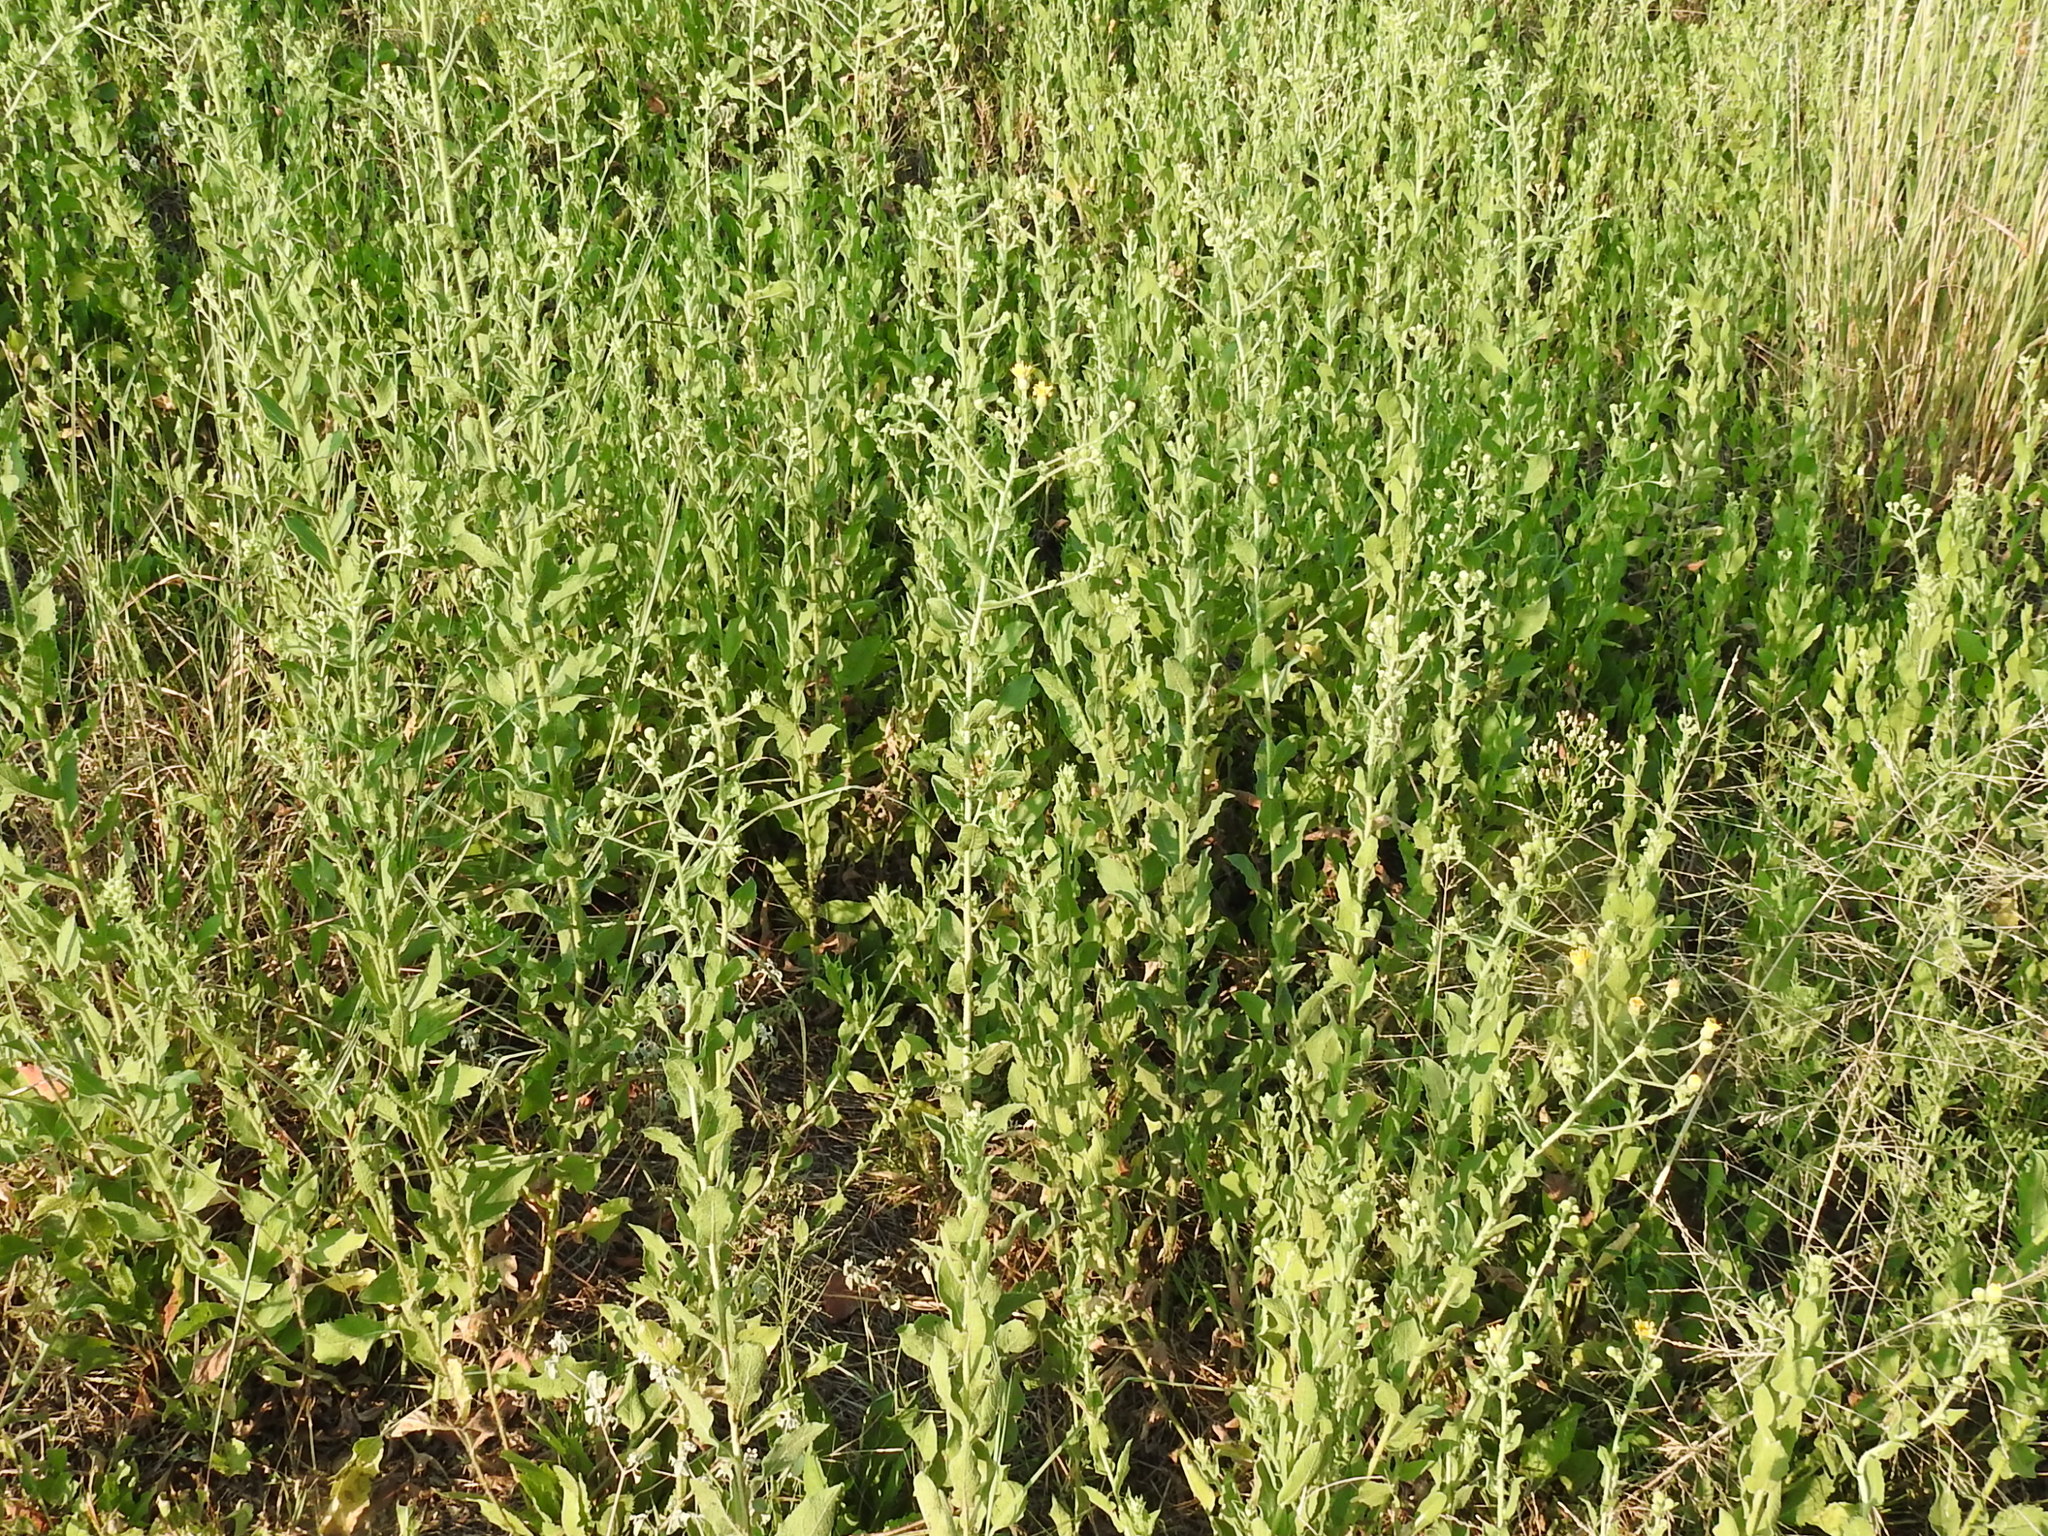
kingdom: Plantae
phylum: Tracheophyta
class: Magnoliopsida
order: Asterales
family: Asteraceae
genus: Heterotheca
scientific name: Heterotheca subaxillaris
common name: Camphorweed
